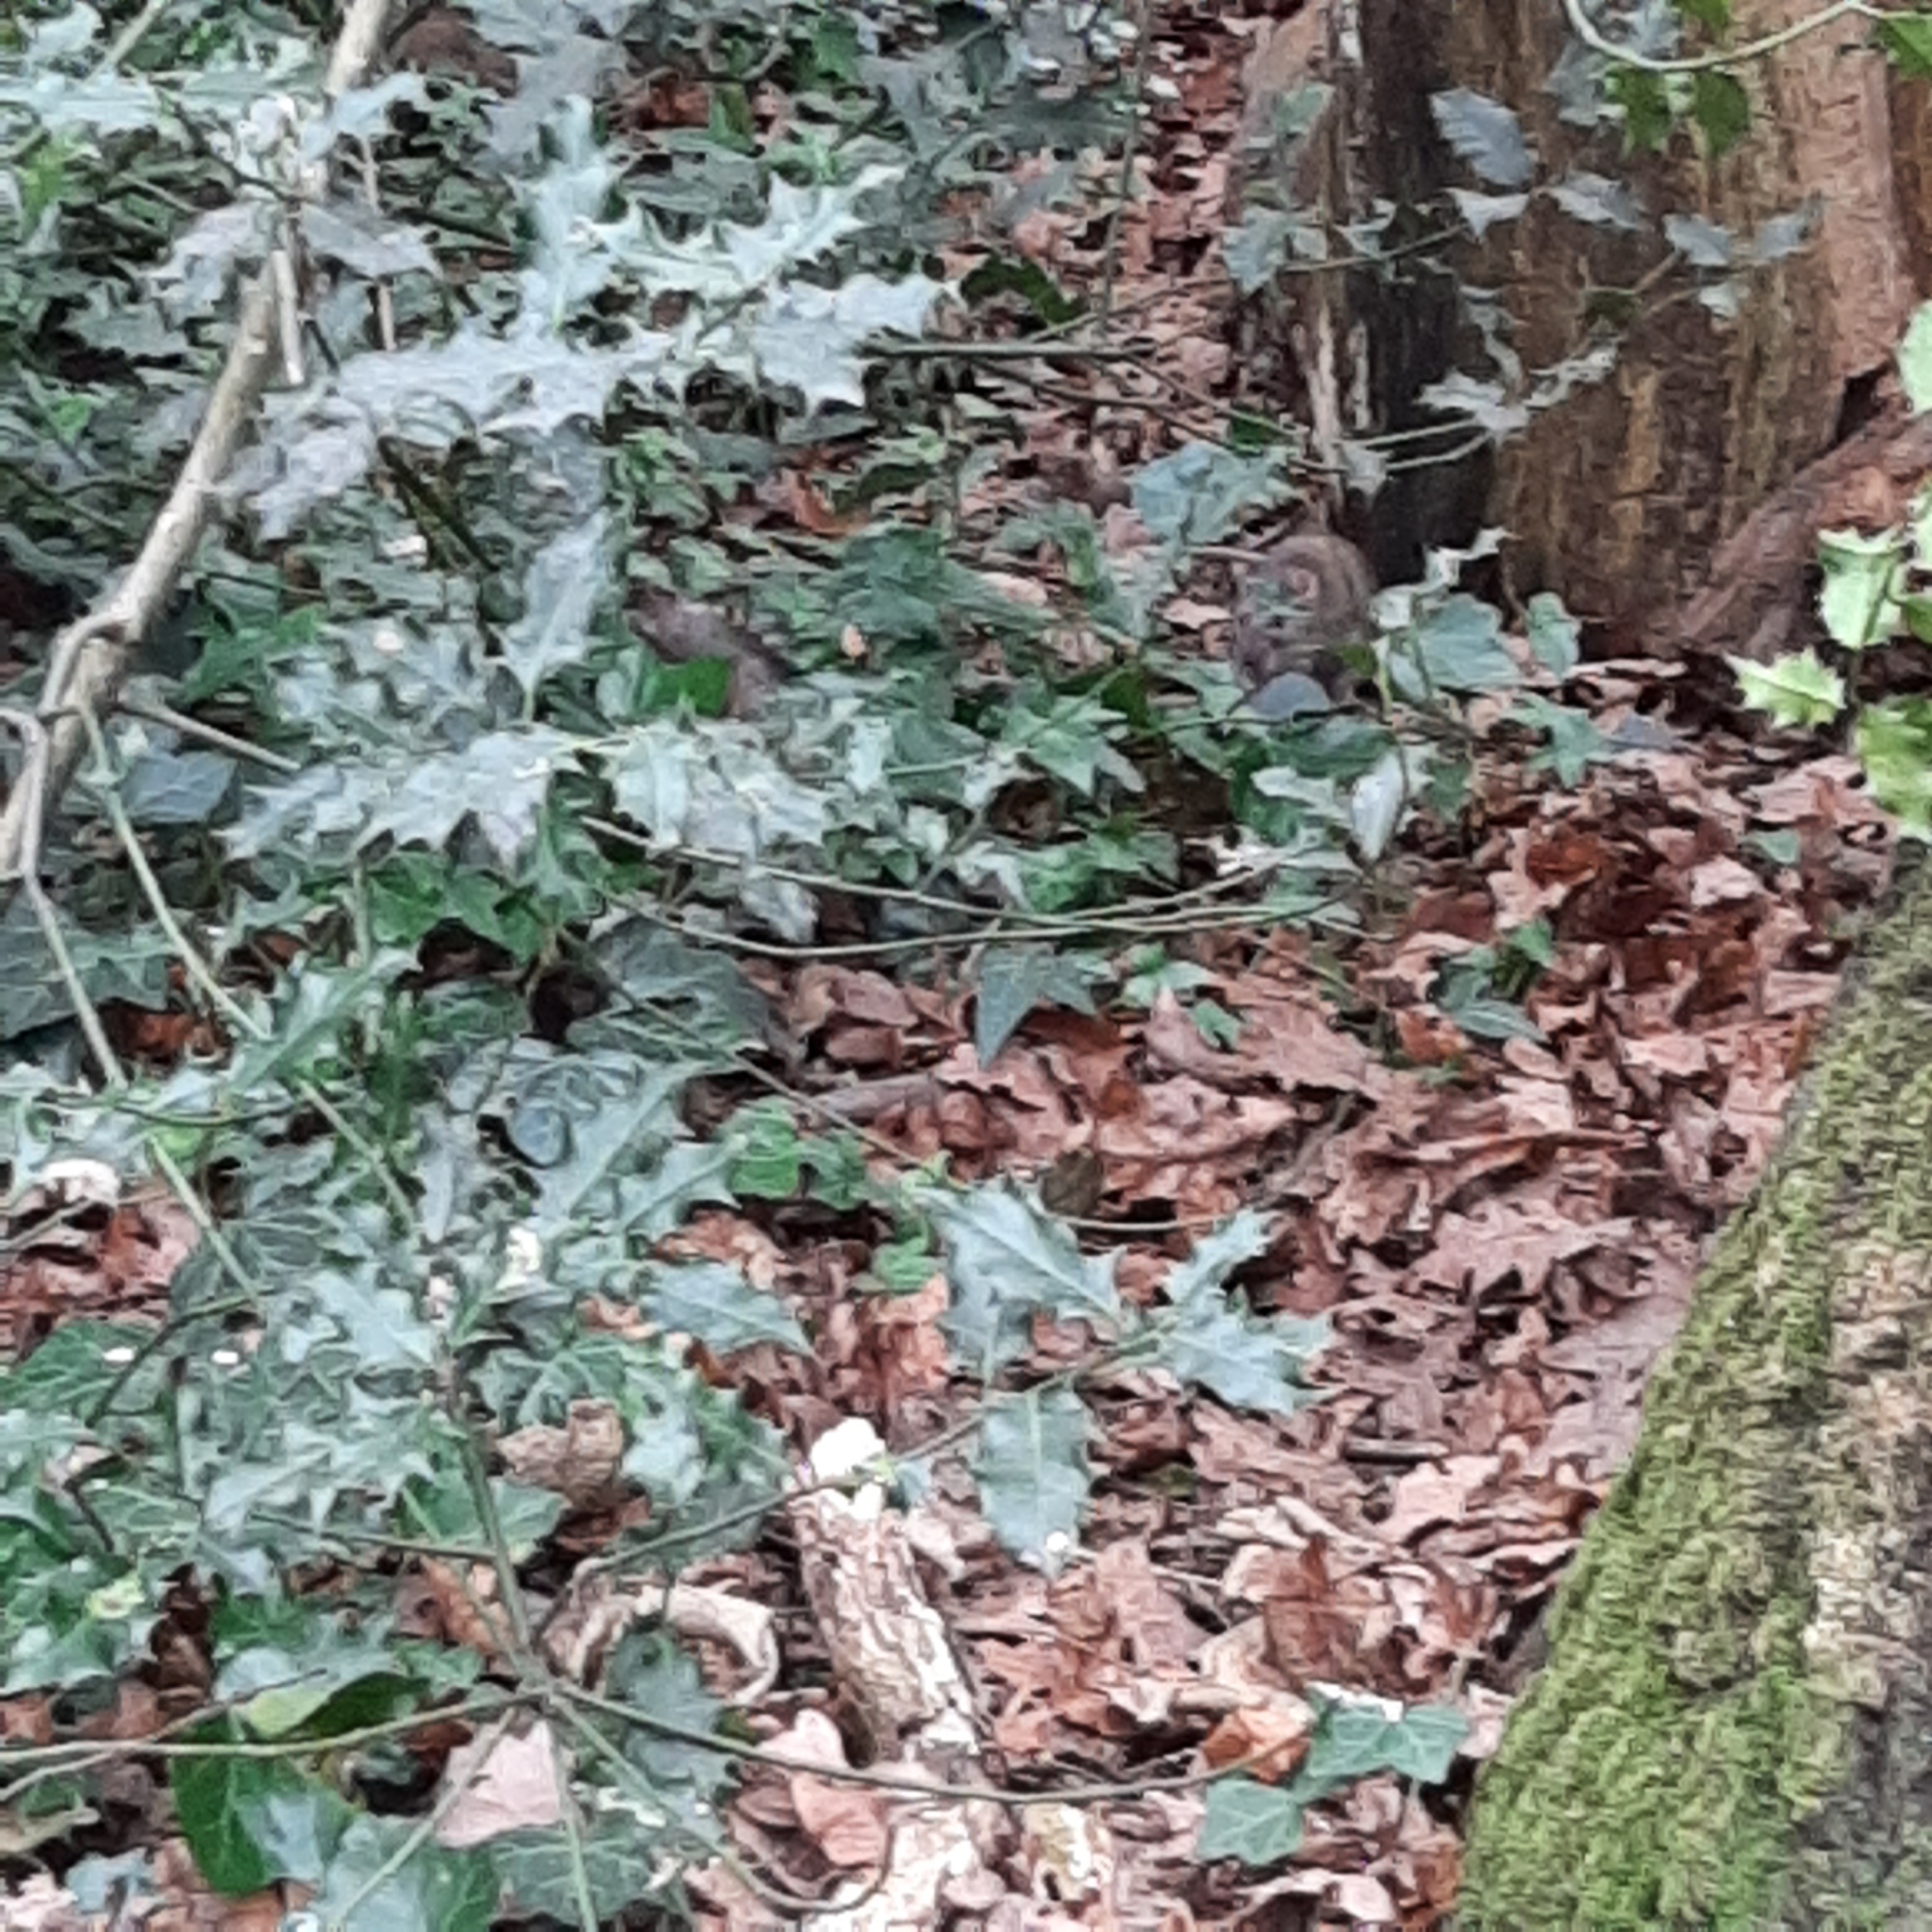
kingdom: Animalia
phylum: Chordata
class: Mammalia
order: Rodentia
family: Muridae
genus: Rattus
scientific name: Rattus norvegicus
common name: Brown rat
